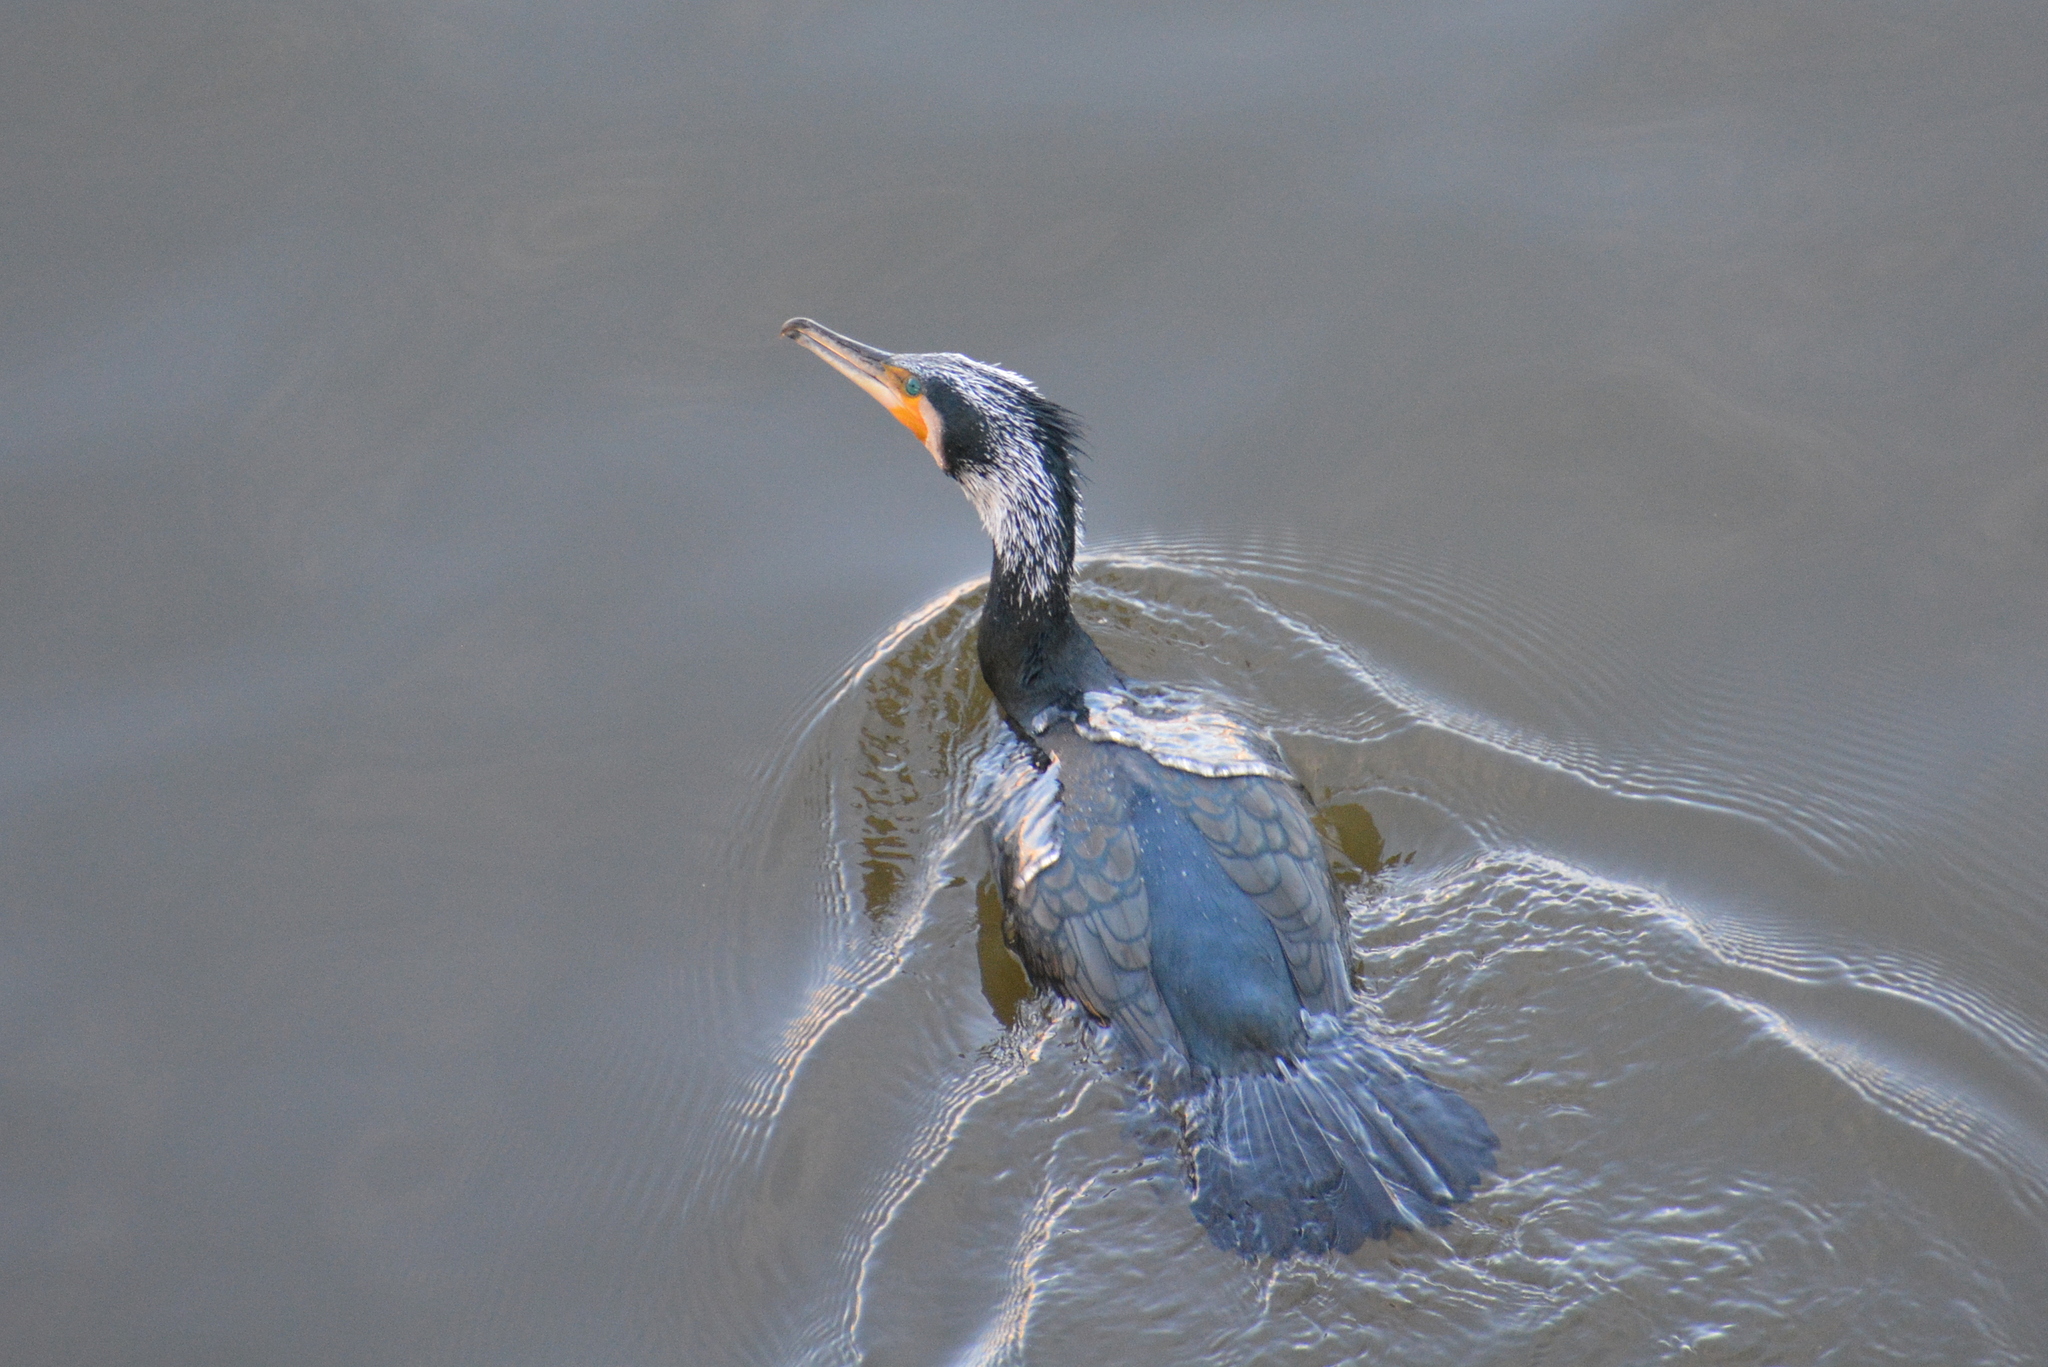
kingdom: Animalia
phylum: Chordata
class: Aves
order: Suliformes
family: Phalacrocoracidae
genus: Phalacrocorax
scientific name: Phalacrocorax carbo
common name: Great cormorant
